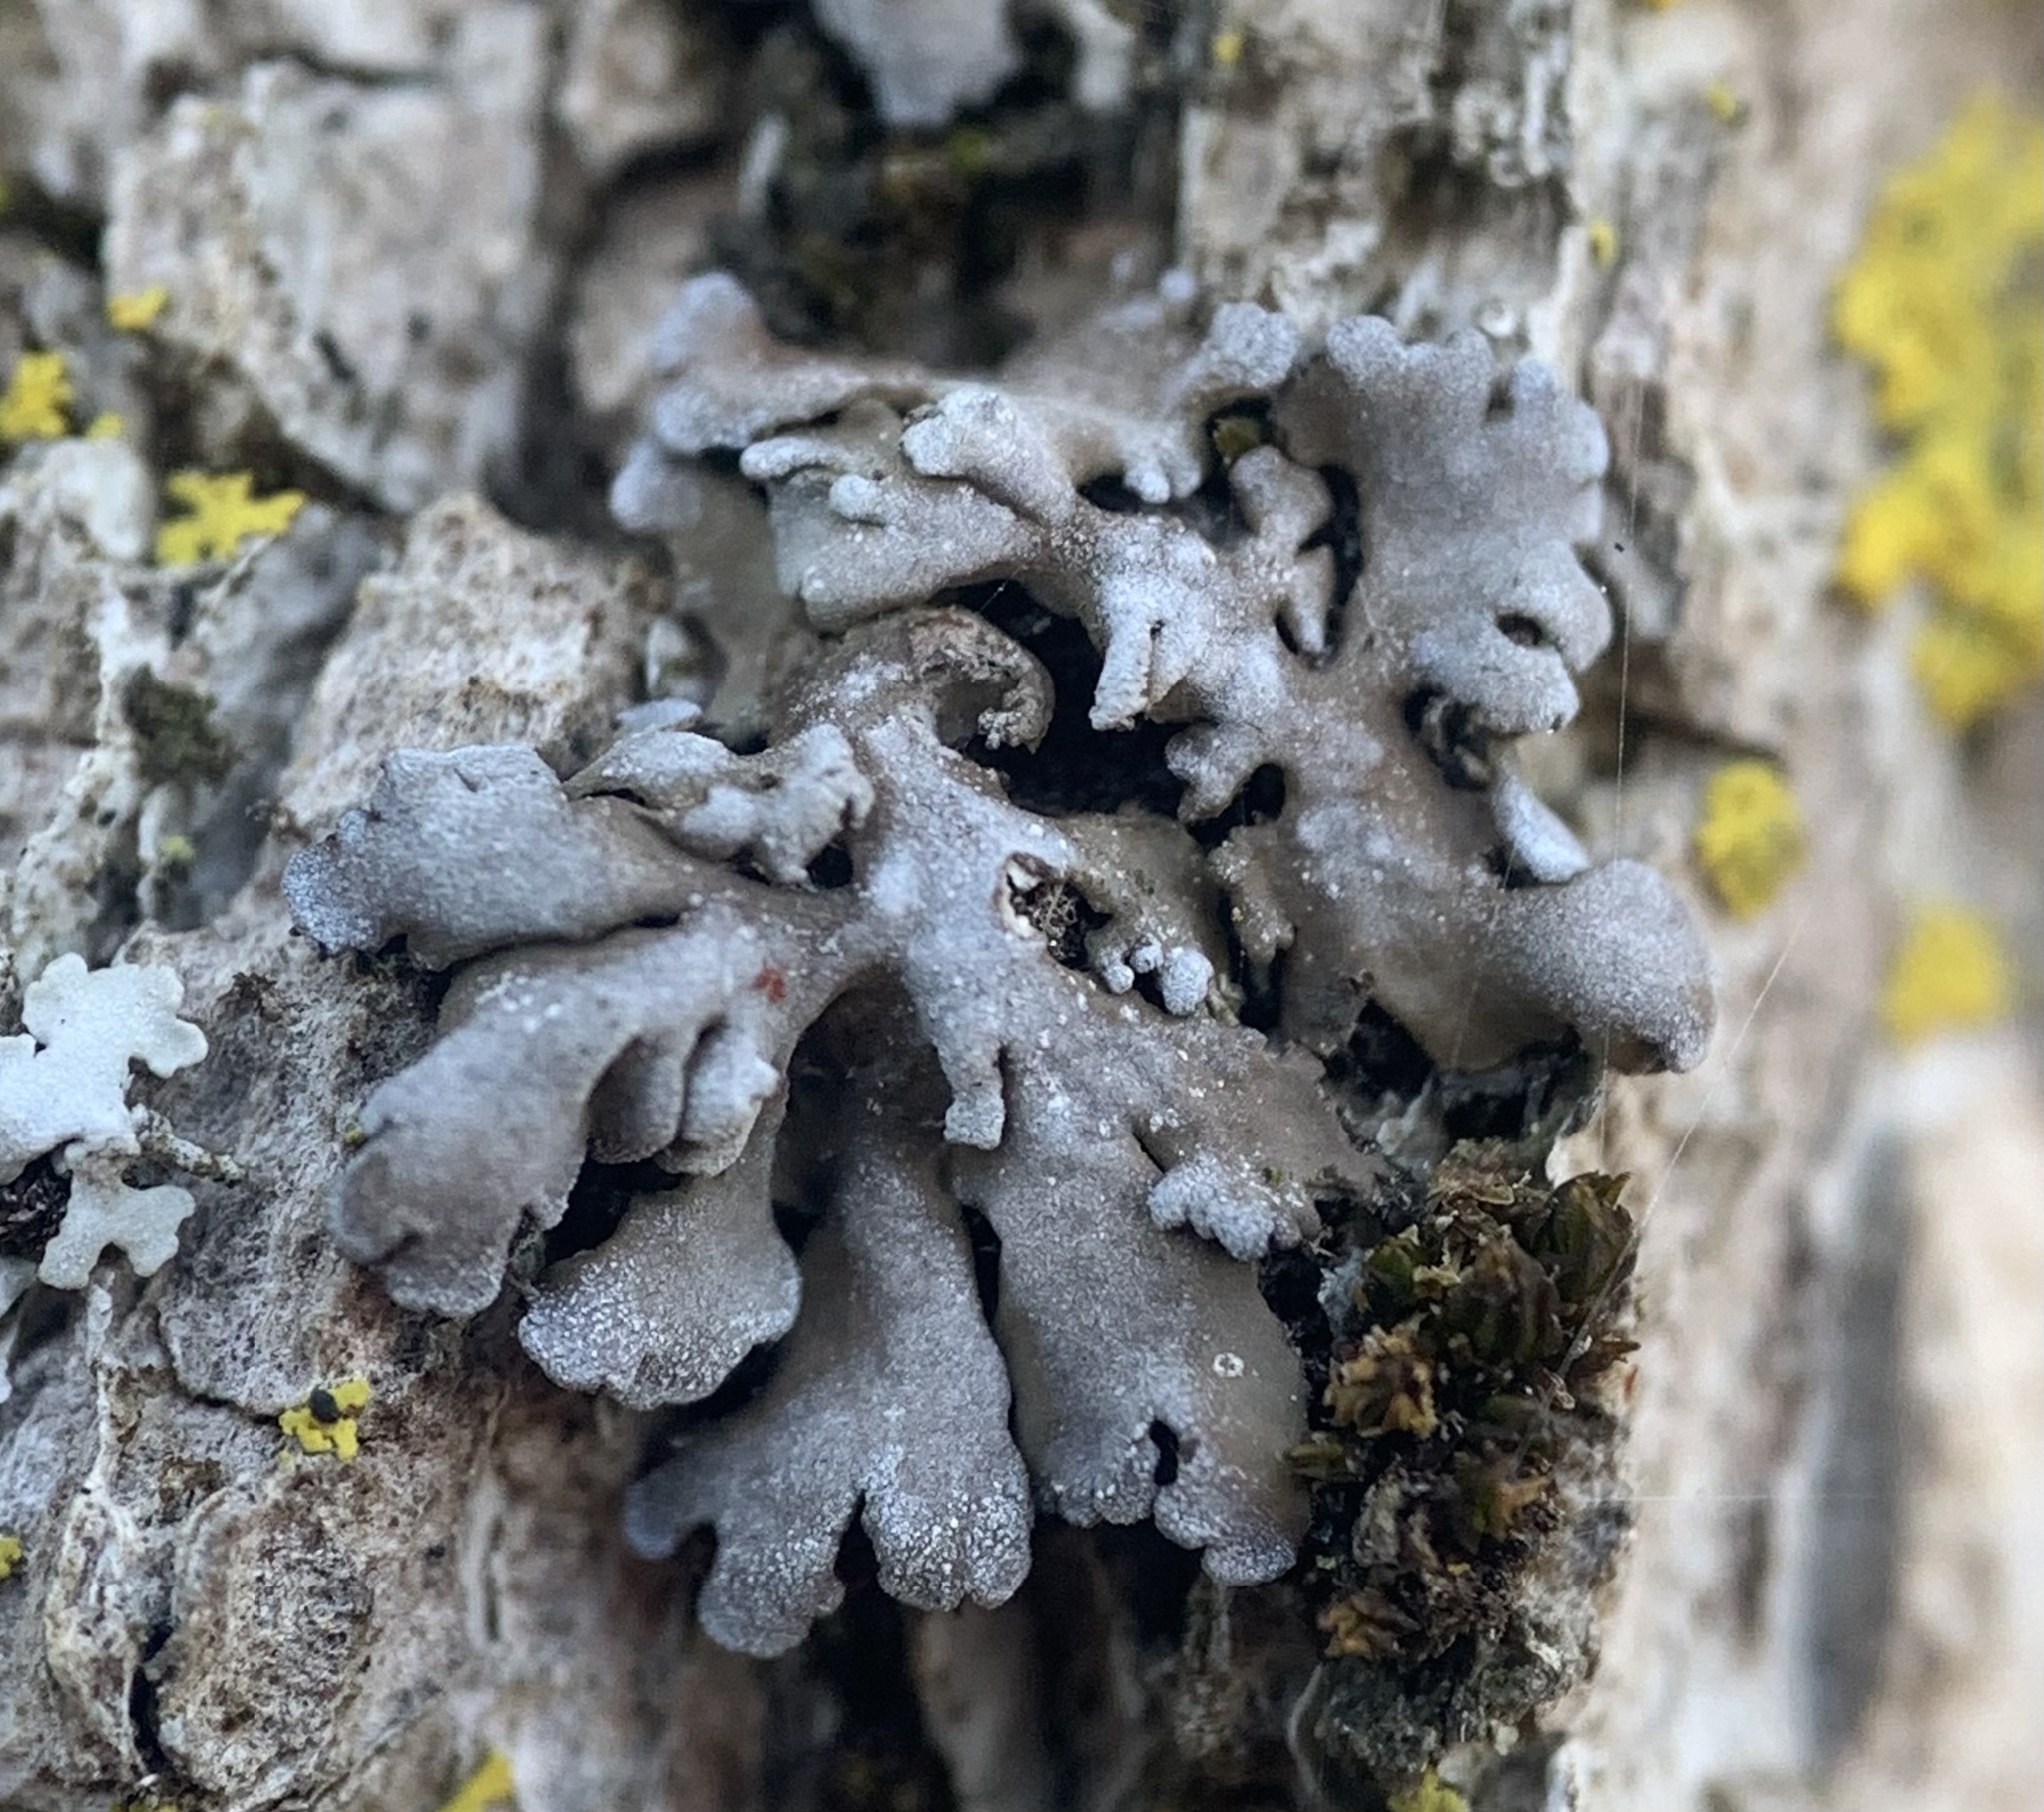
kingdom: Fungi
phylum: Ascomycota
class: Lecanoromycetes
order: Caliciales
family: Physciaceae
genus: Physconia
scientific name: Physconia perisidiosa
